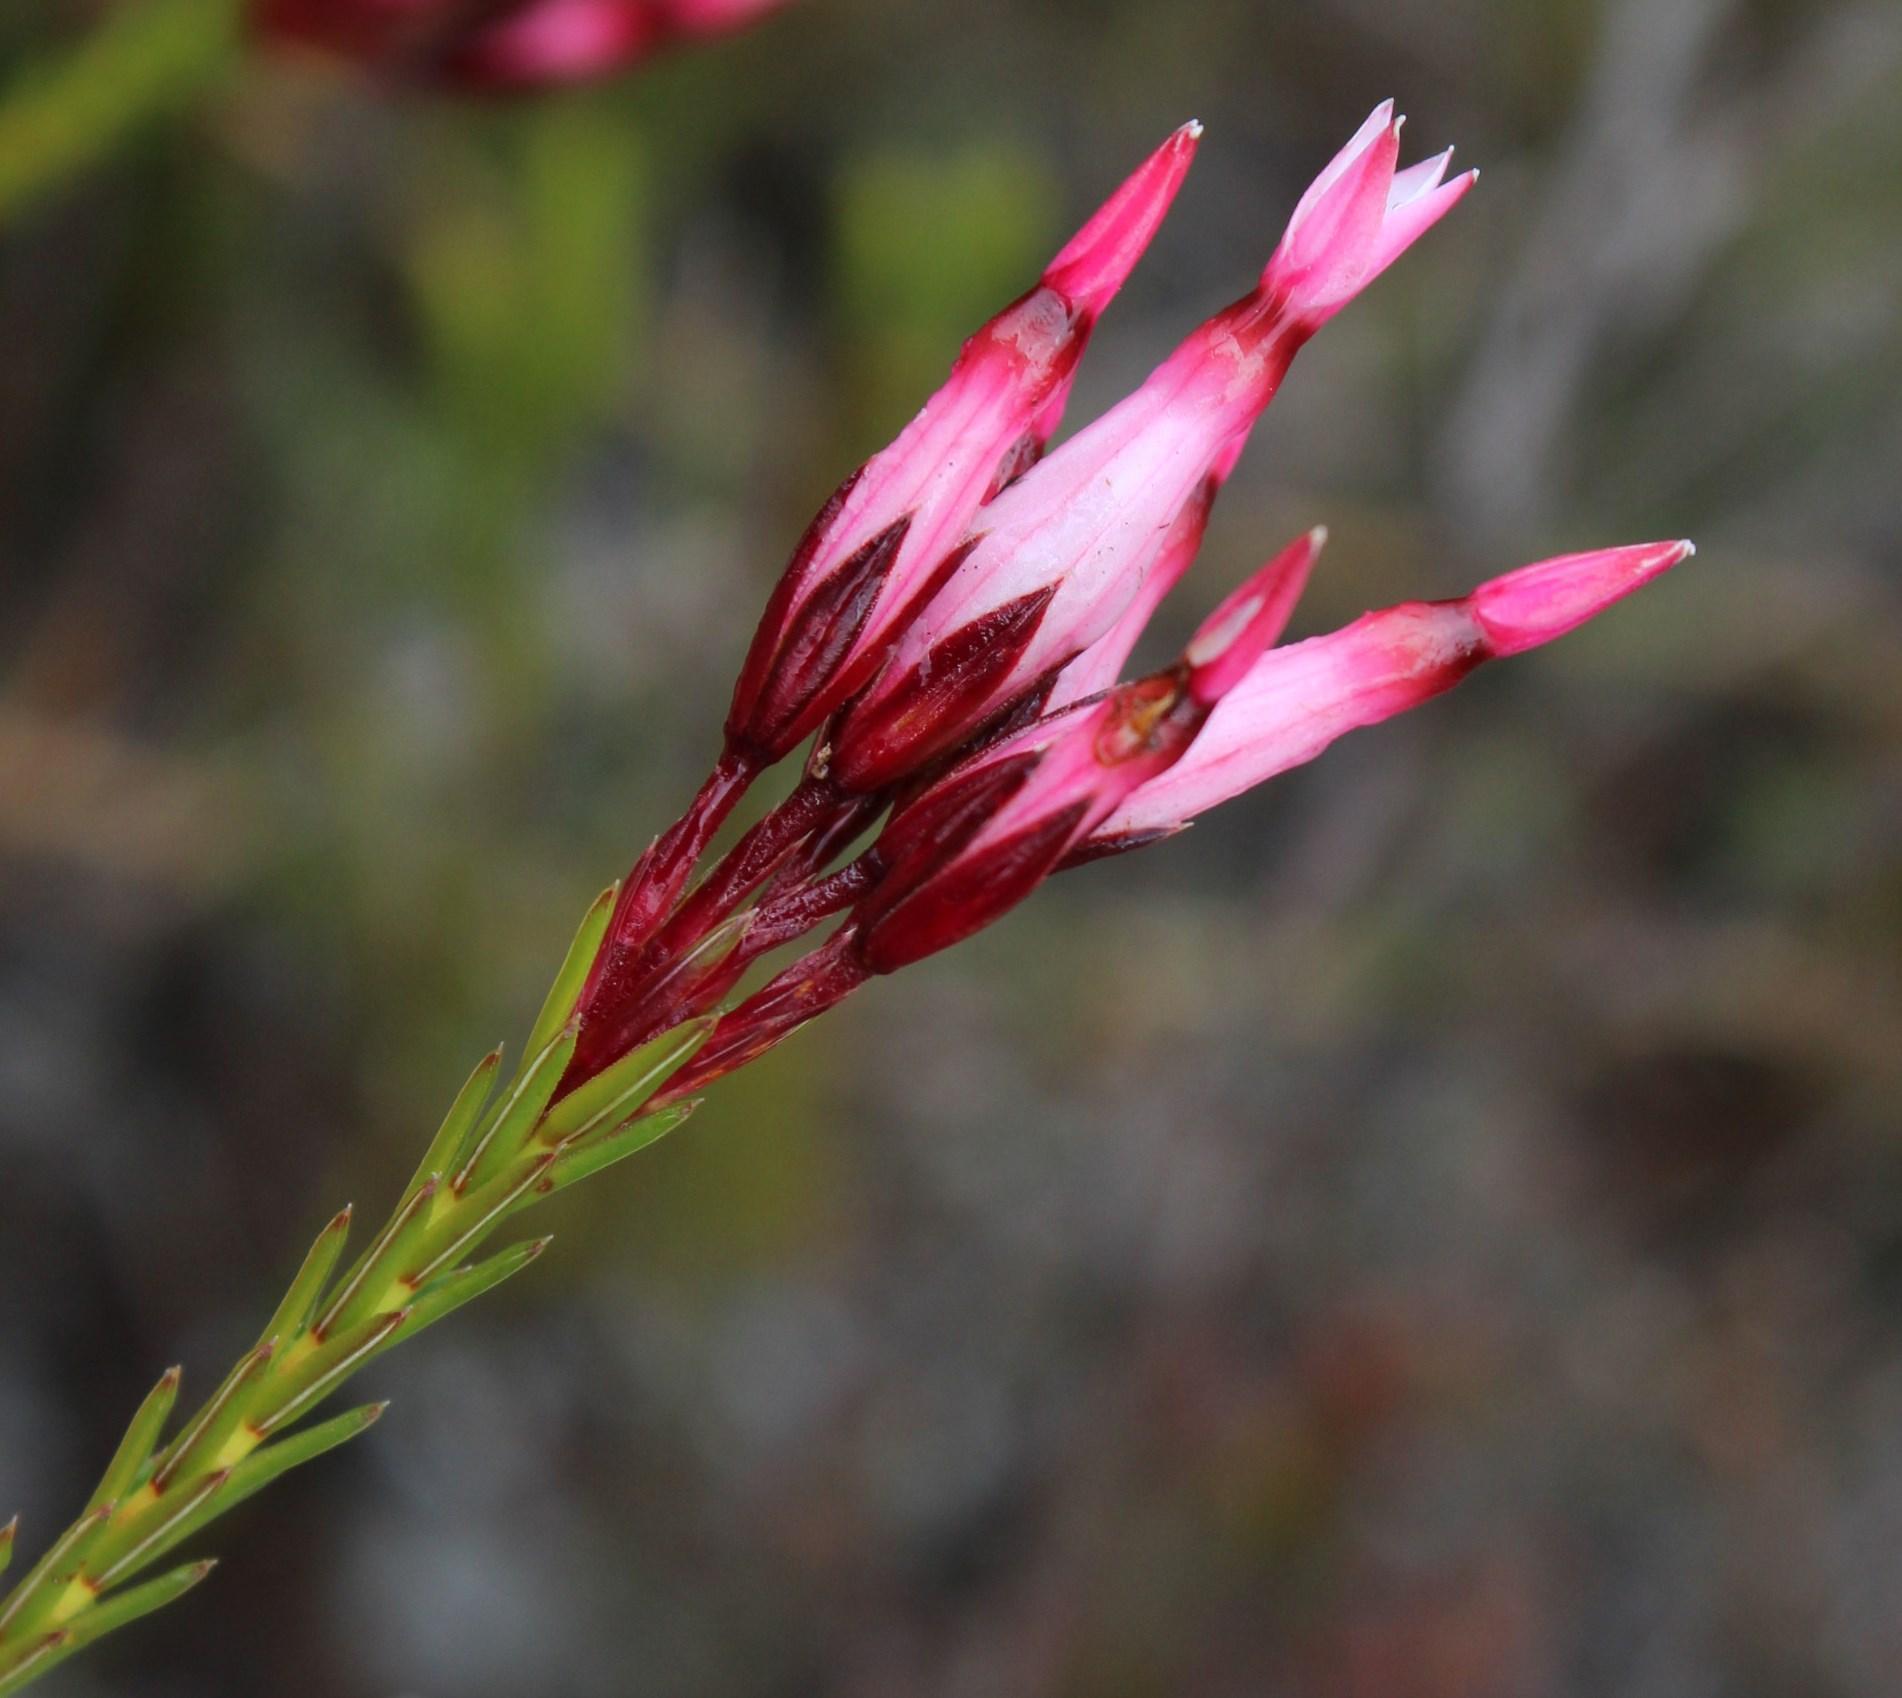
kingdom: Plantae
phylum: Tracheophyta
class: Magnoliopsida
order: Ericales
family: Ericaceae
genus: Erica
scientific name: Erica irbyana
